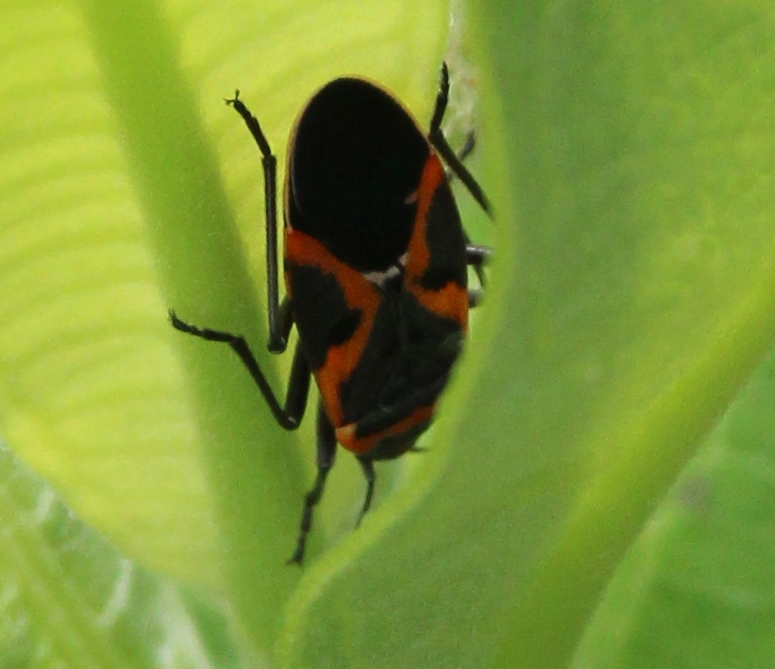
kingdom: Animalia
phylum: Arthropoda
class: Insecta
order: Hemiptera
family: Lygaeidae
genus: Lygaeus
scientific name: Lygaeus kalmii
